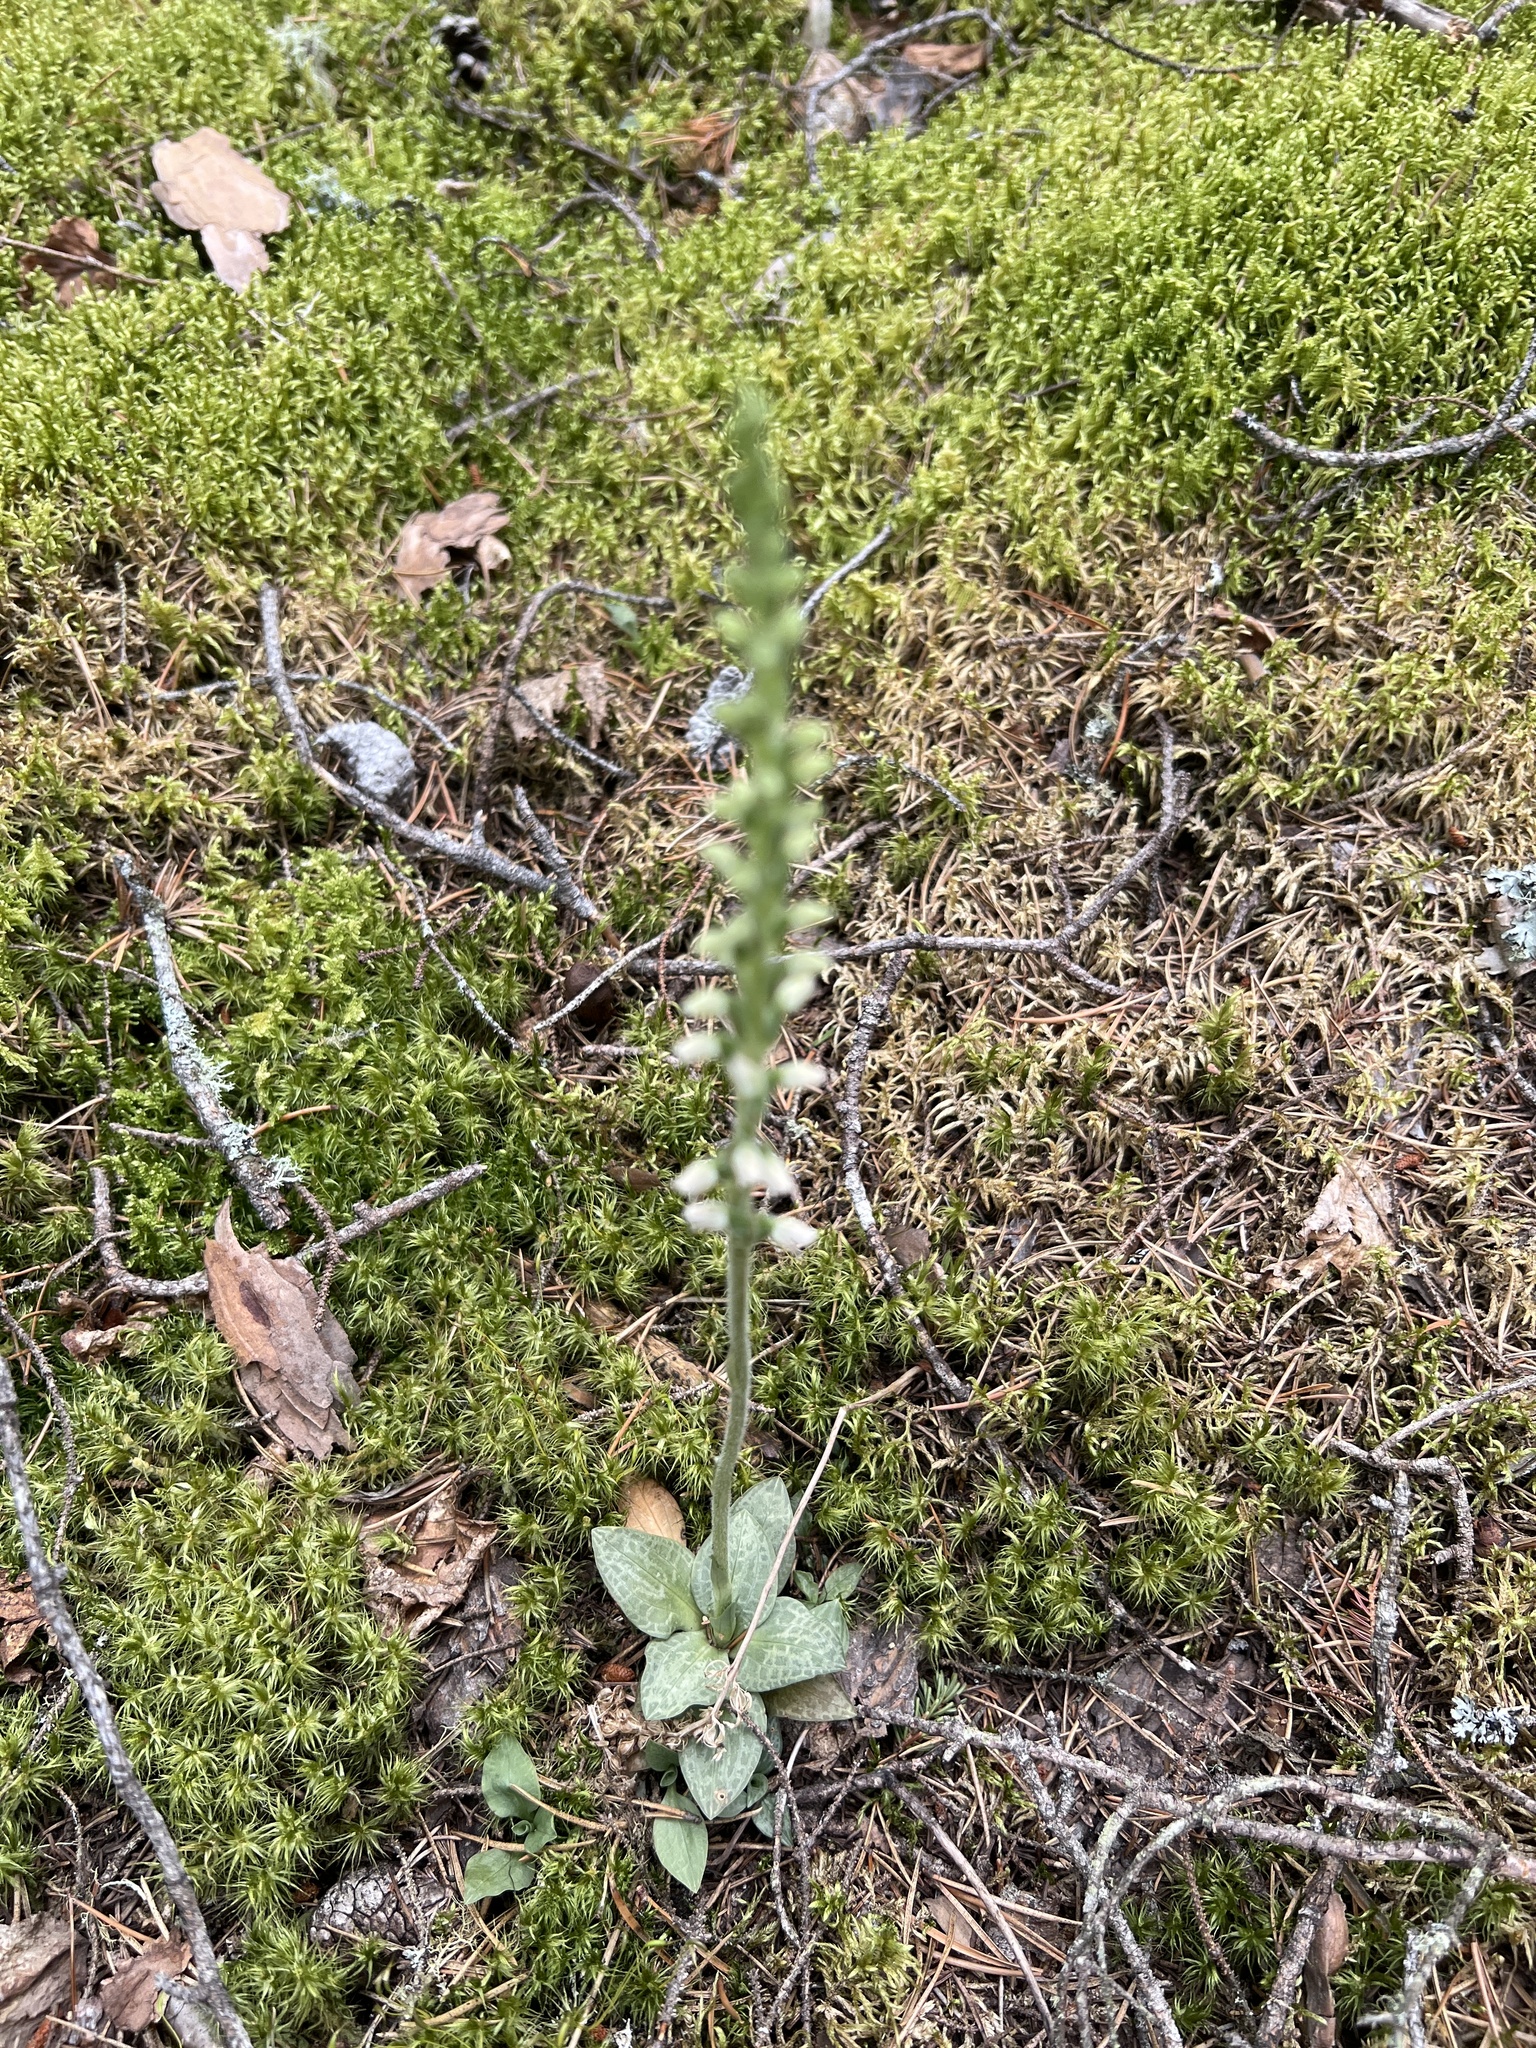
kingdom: Plantae
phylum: Tracheophyta
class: Liliopsida
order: Asparagales
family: Orchidaceae
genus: Goodyera
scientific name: Goodyera tesselata
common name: Checkered rattlesnake-plantain
